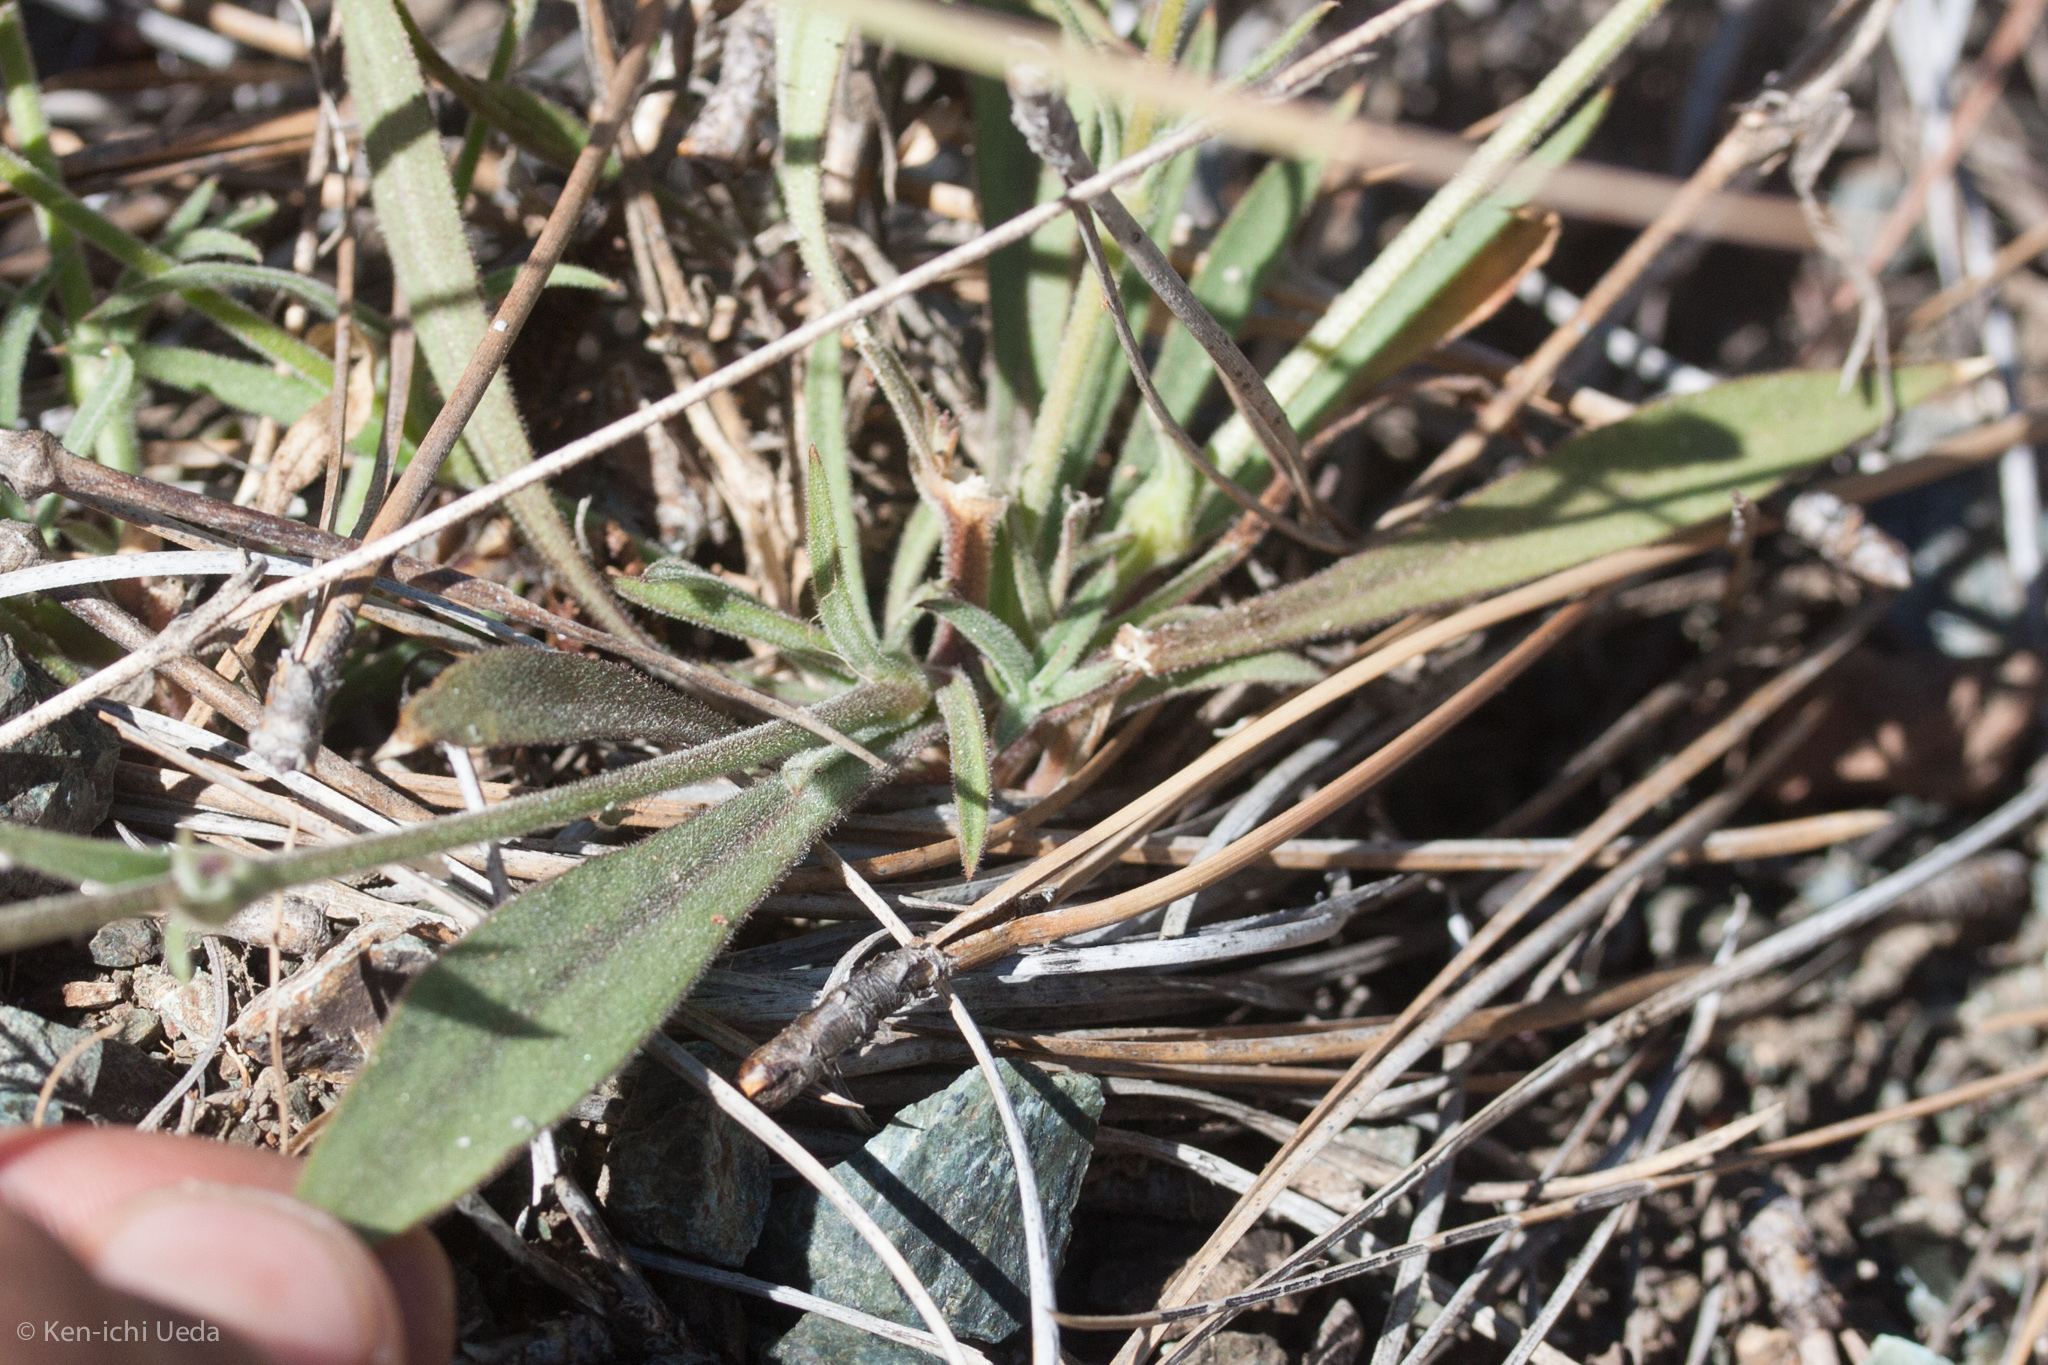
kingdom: Plantae
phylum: Tracheophyta
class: Magnoliopsida
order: Caryophyllales
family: Caryophyllaceae
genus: Silene
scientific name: Silene verecunda
